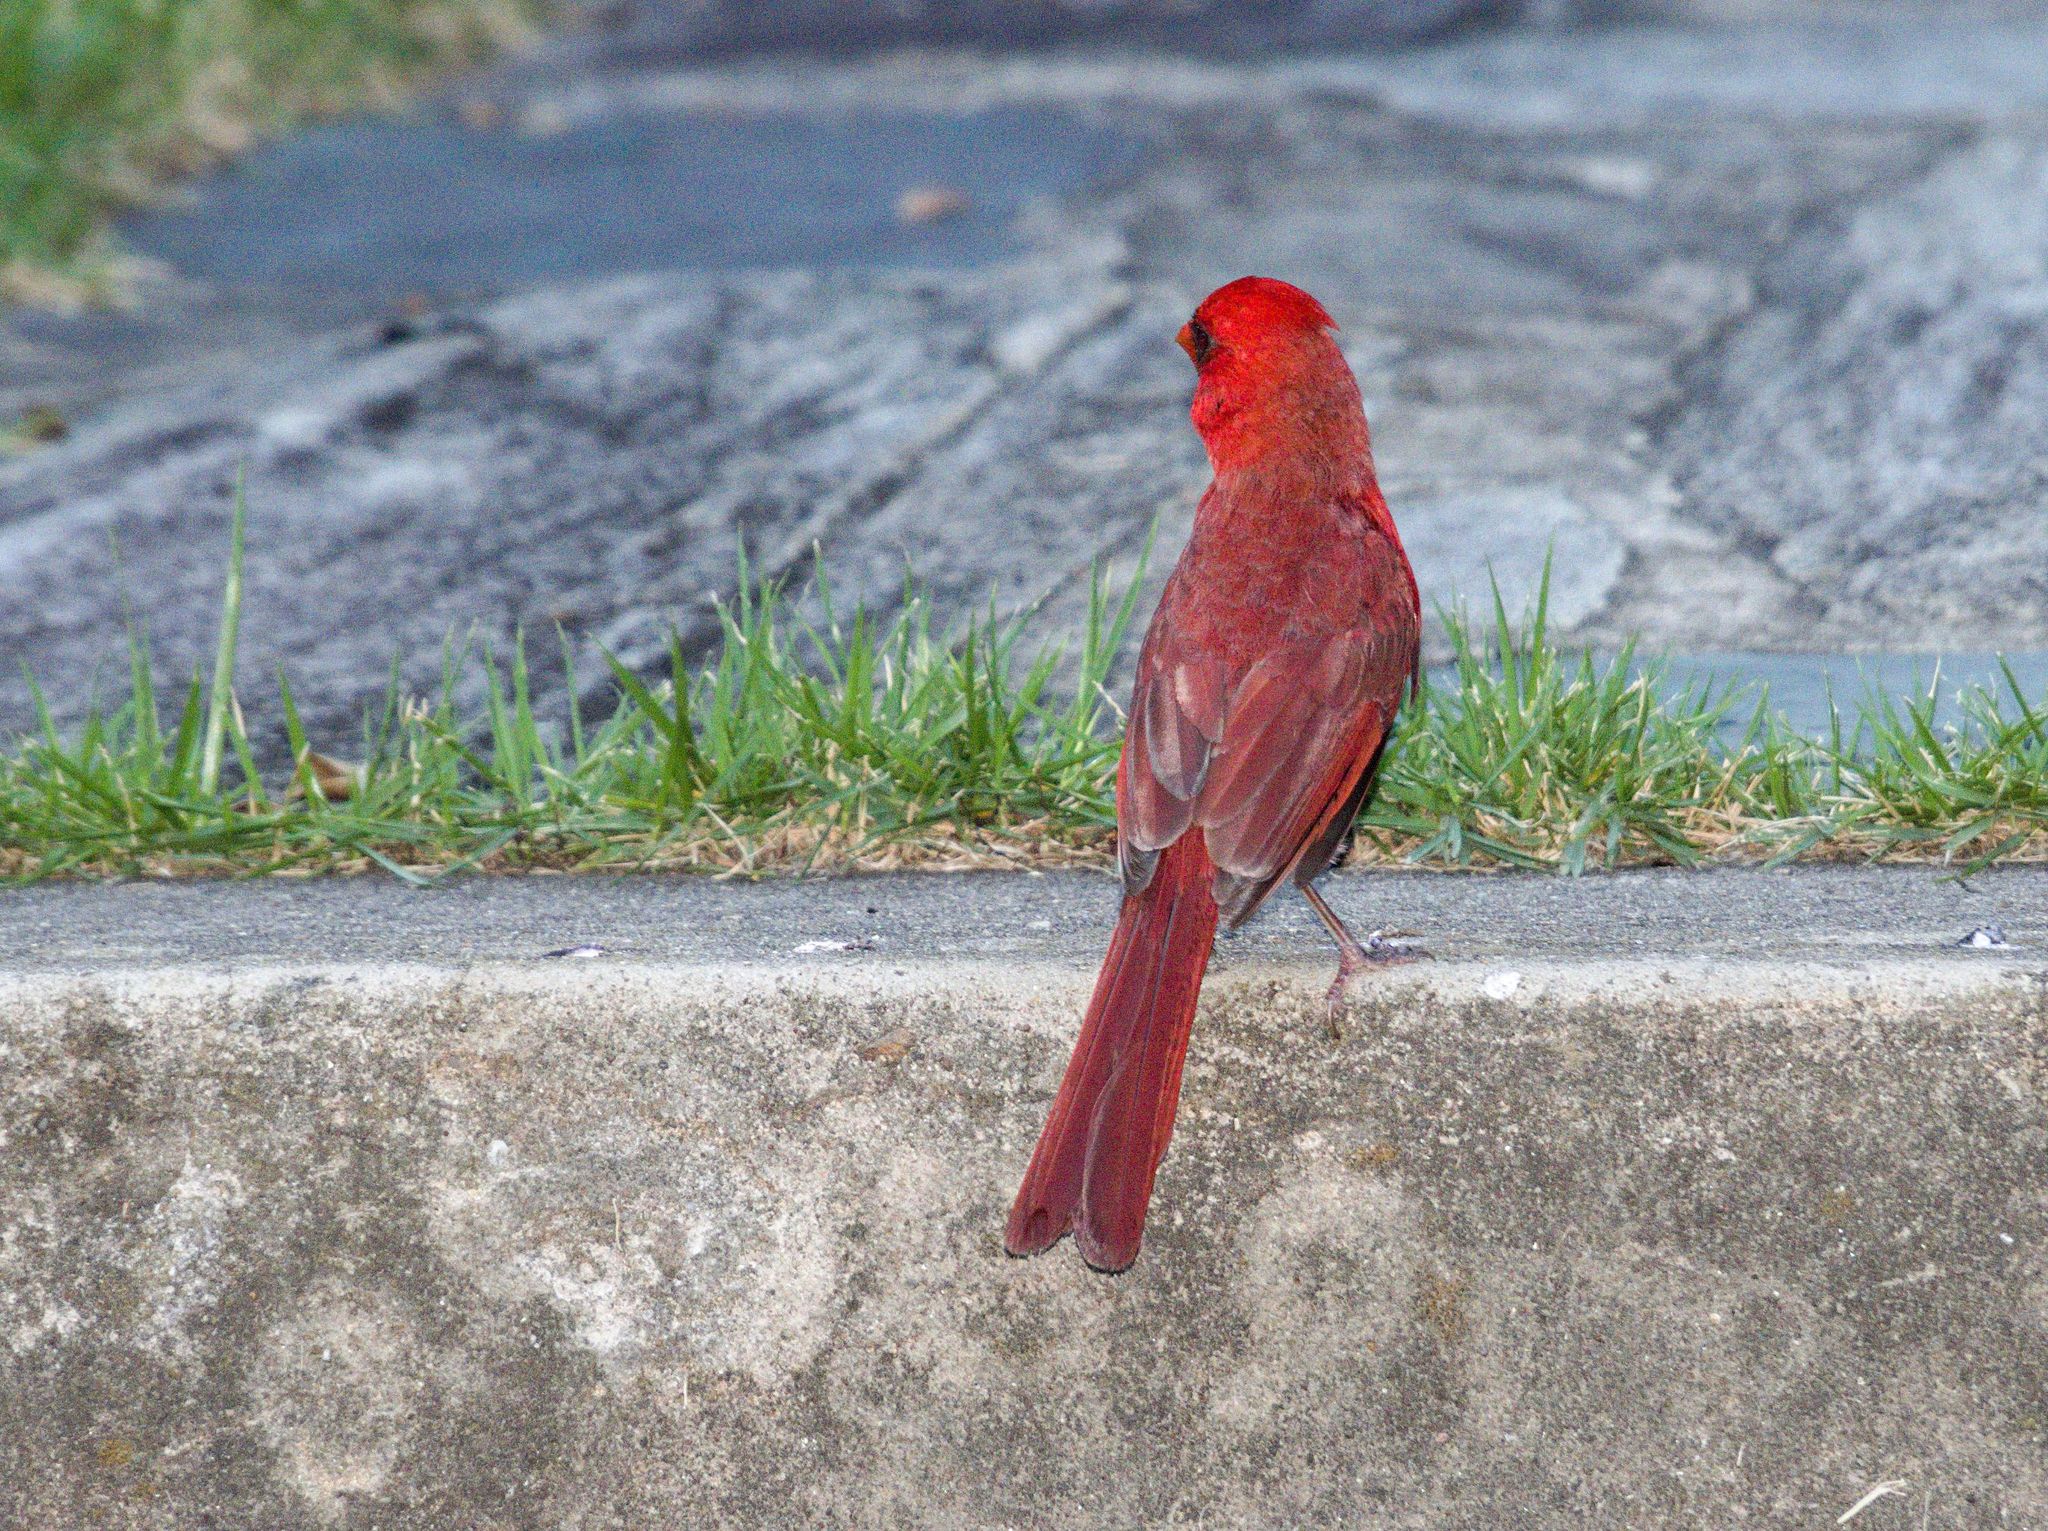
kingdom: Animalia
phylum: Chordata
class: Aves
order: Passeriformes
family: Cardinalidae
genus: Cardinalis
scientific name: Cardinalis cardinalis
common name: Northern cardinal
